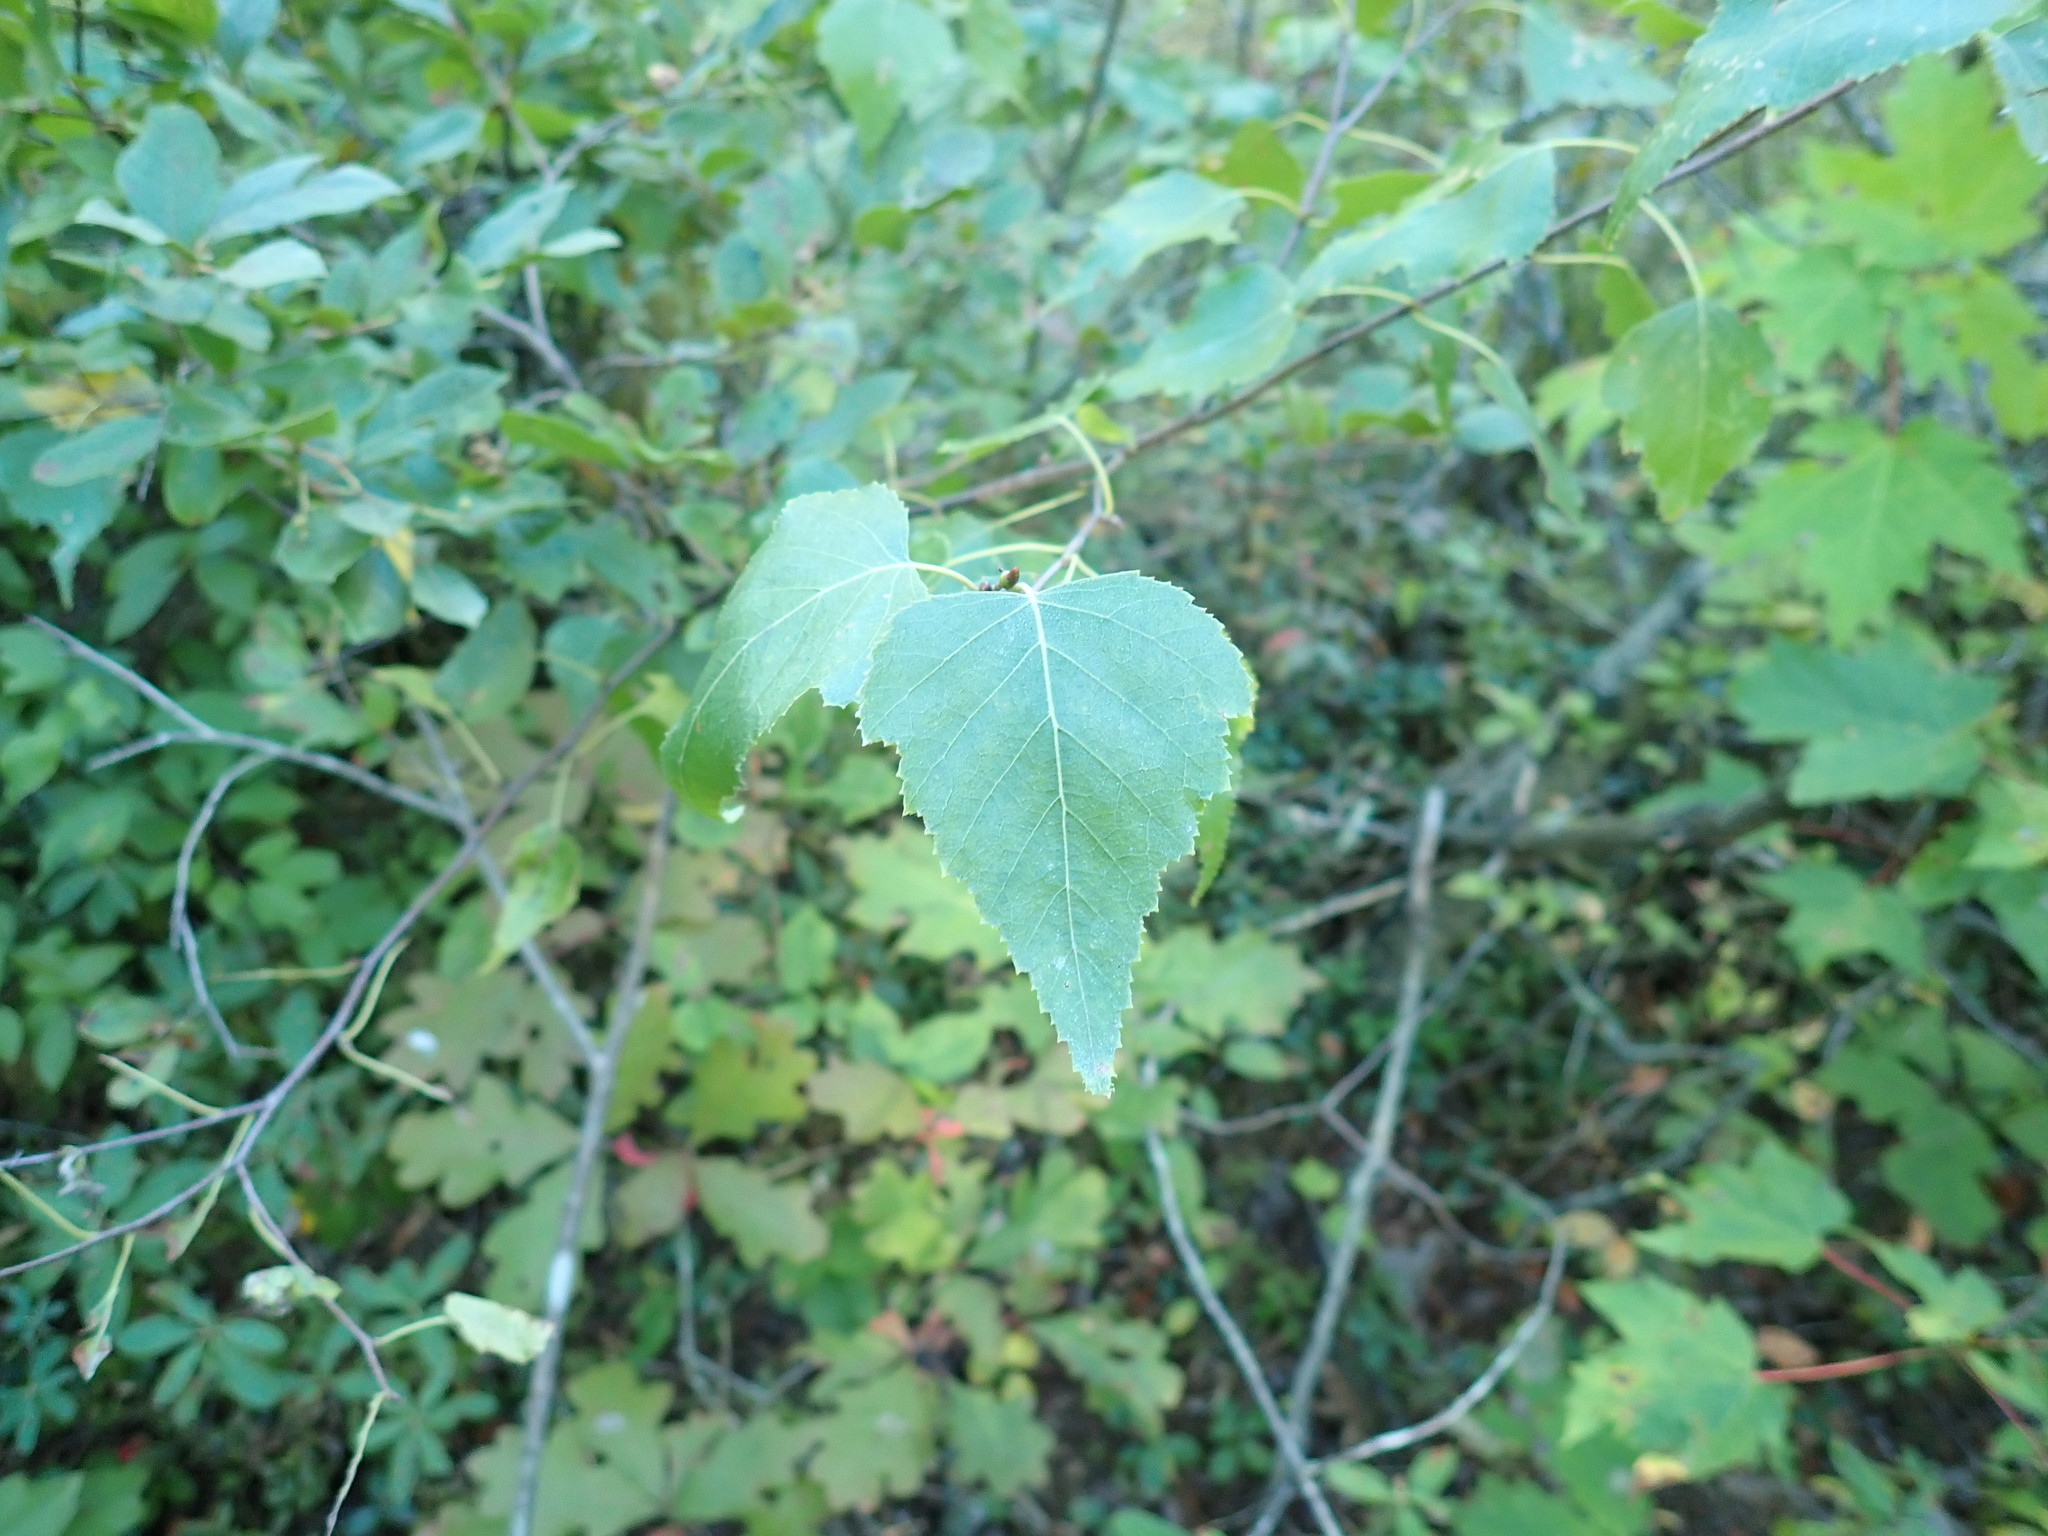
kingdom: Plantae
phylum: Tracheophyta
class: Magnoliopsida
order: Fagales
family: Betulaceae
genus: Betula
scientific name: Betula populifolia
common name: Fire birch
